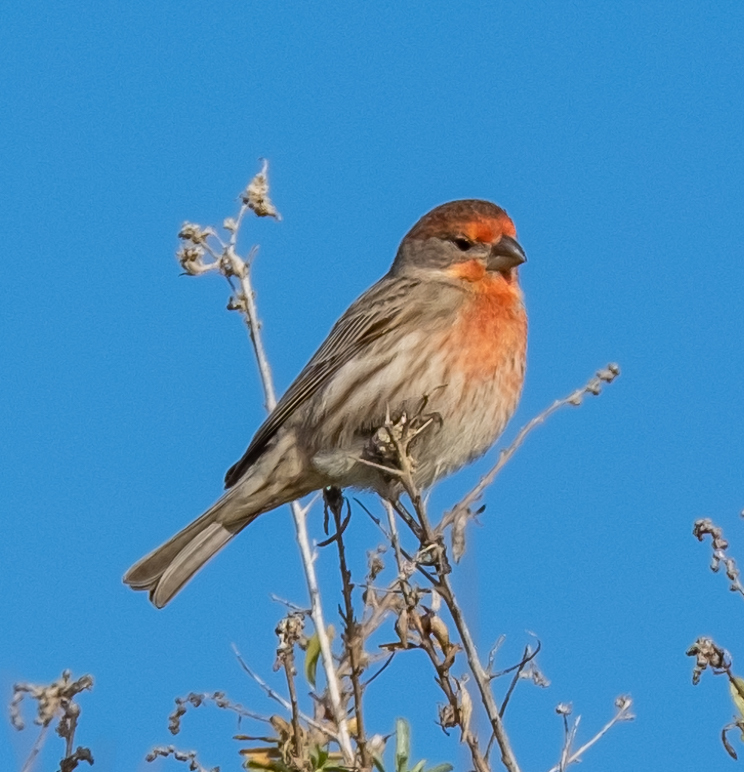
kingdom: Animalia
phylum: Chordata
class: Aves
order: Passeriformes
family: Fringillidae
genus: Haemorhous
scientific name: Haemorhous mexicanus
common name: House finch
